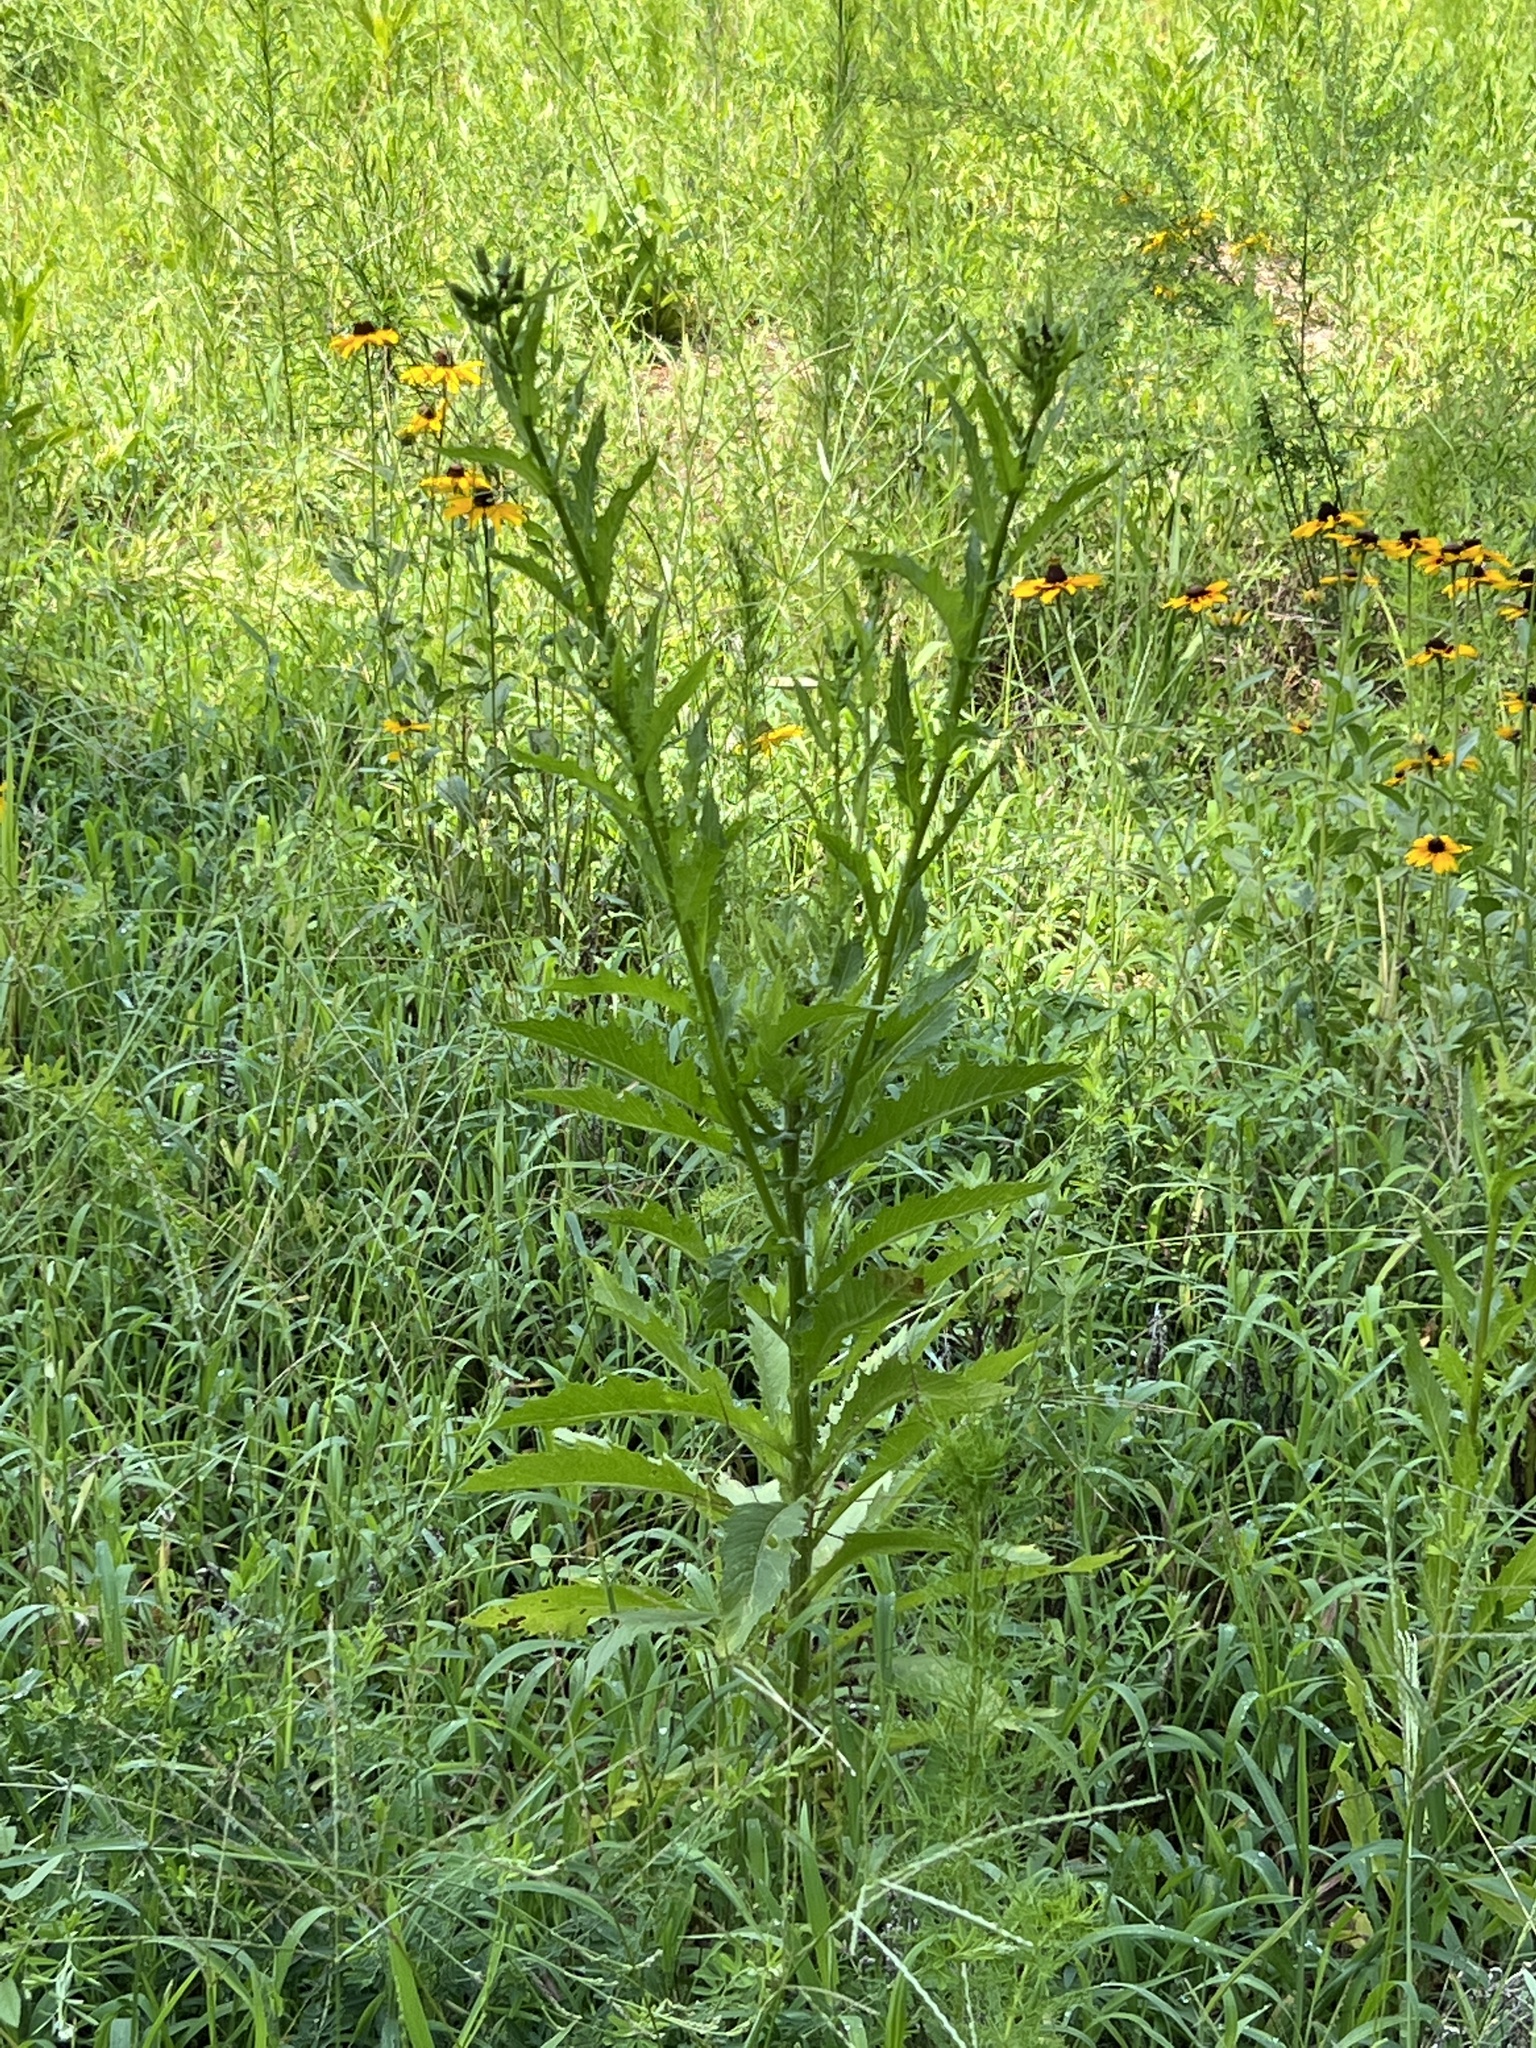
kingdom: Plantae
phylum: Tracheophyta
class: Magnoliopsida
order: Asterales
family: Asteraceae
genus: Silphium
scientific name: Silphium asteriscus
